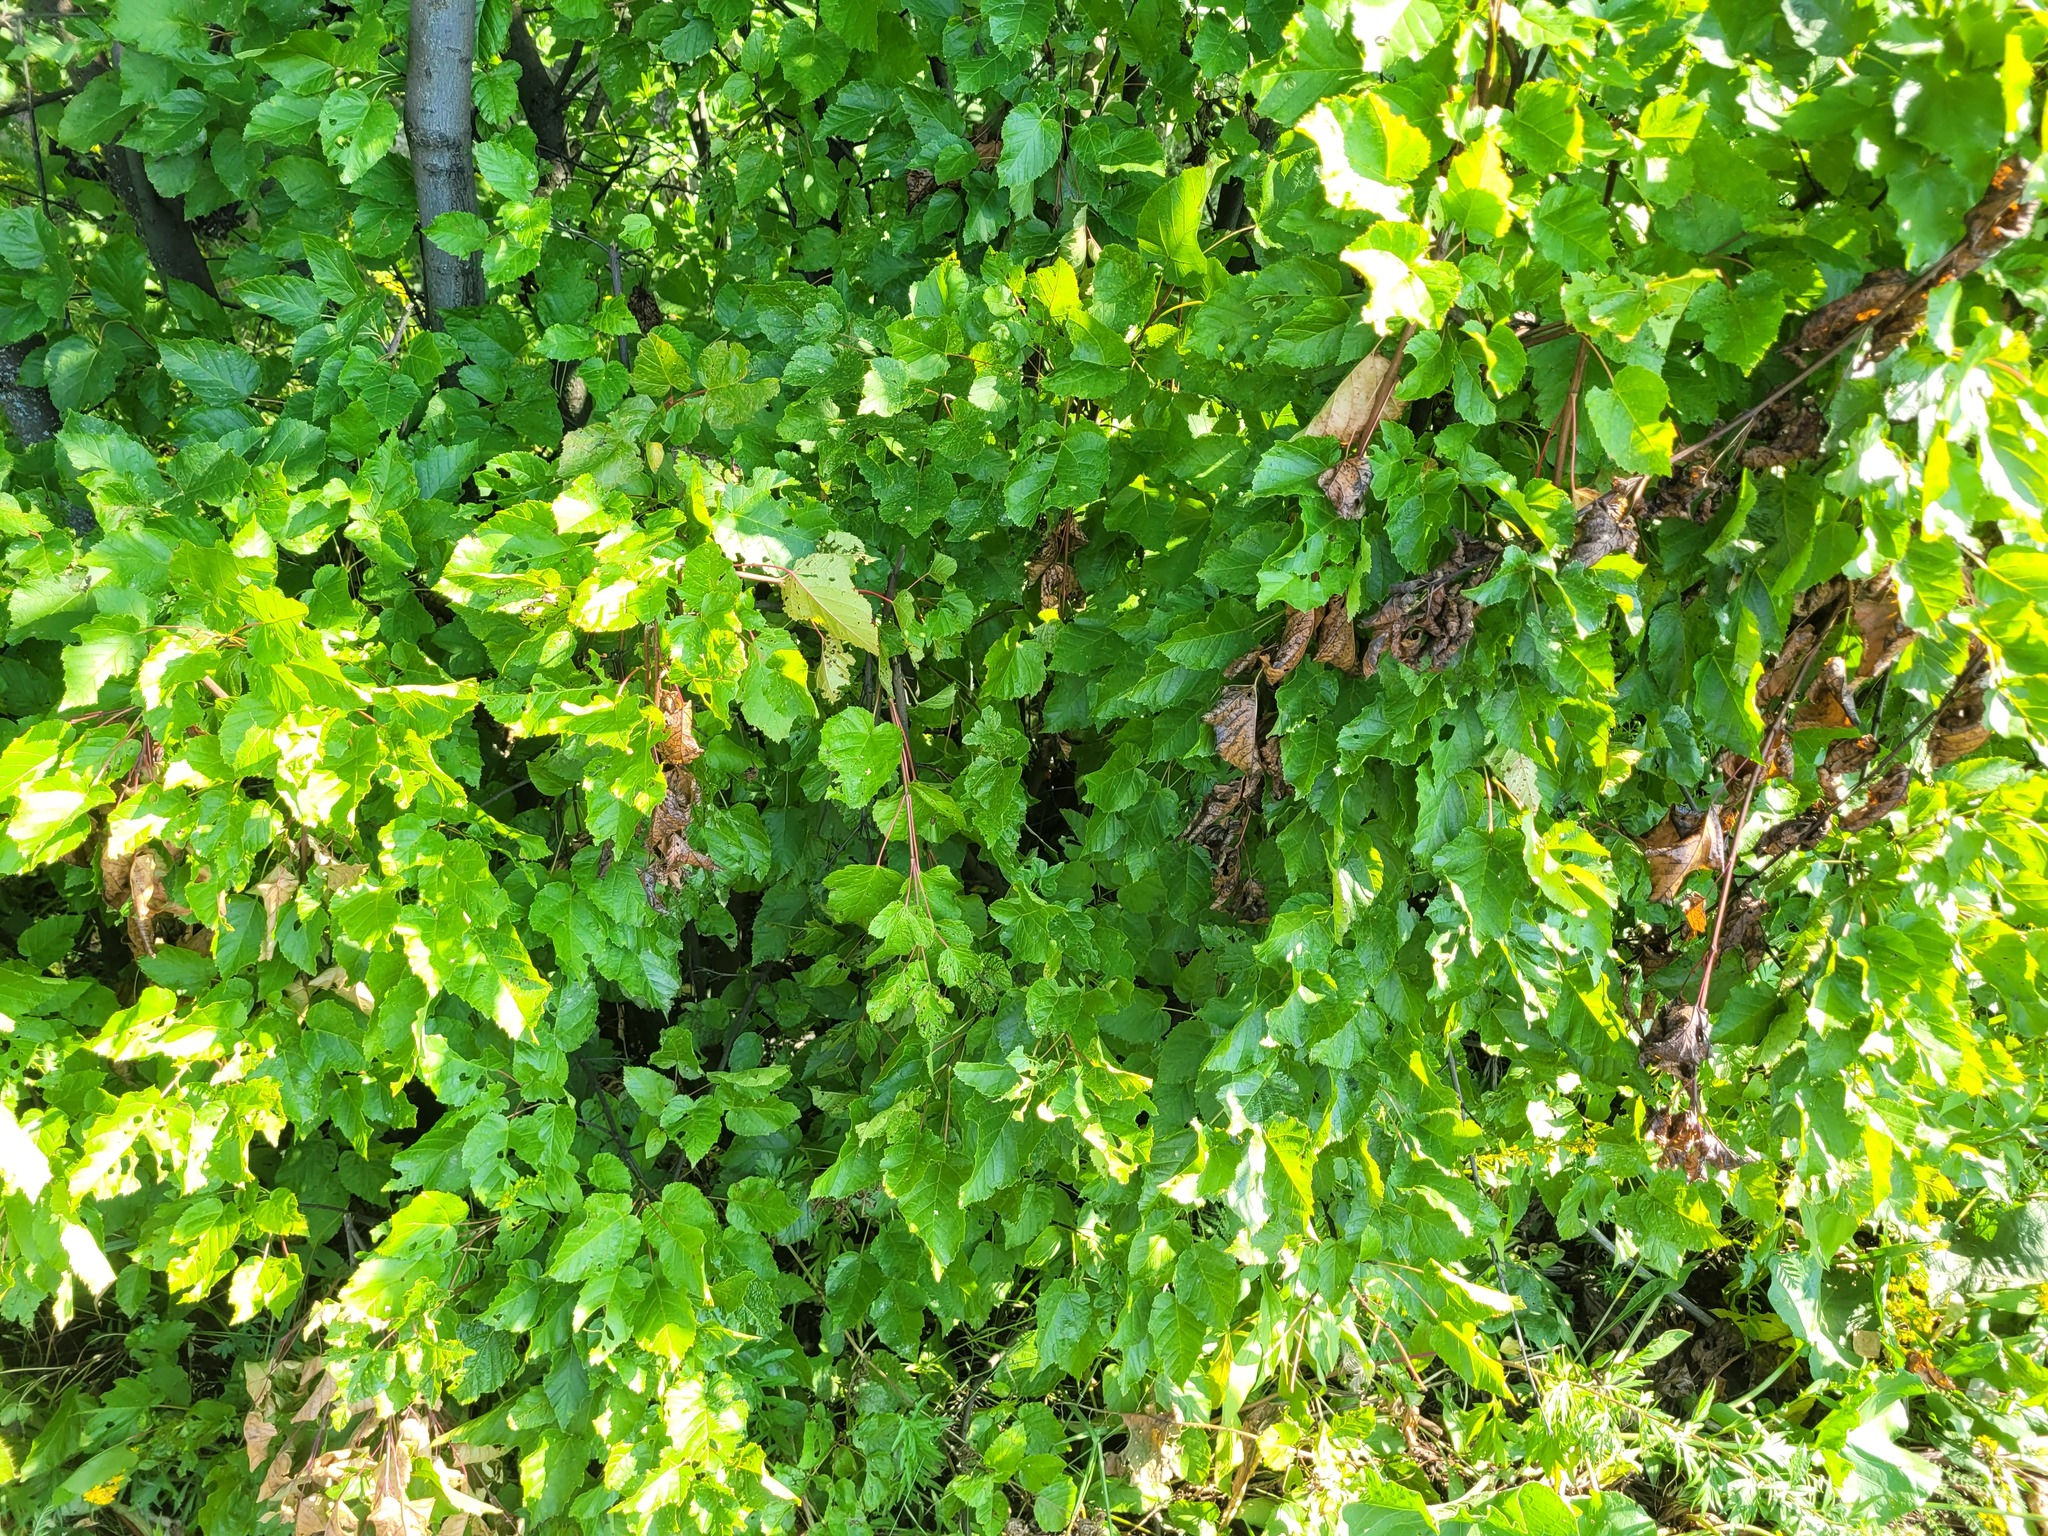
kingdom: Plantae
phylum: Tracheophyta
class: Magnoliopsida
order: Sapindales
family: Sapindaceae
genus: Acer
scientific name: Acer tataricum
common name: Tartar maple
